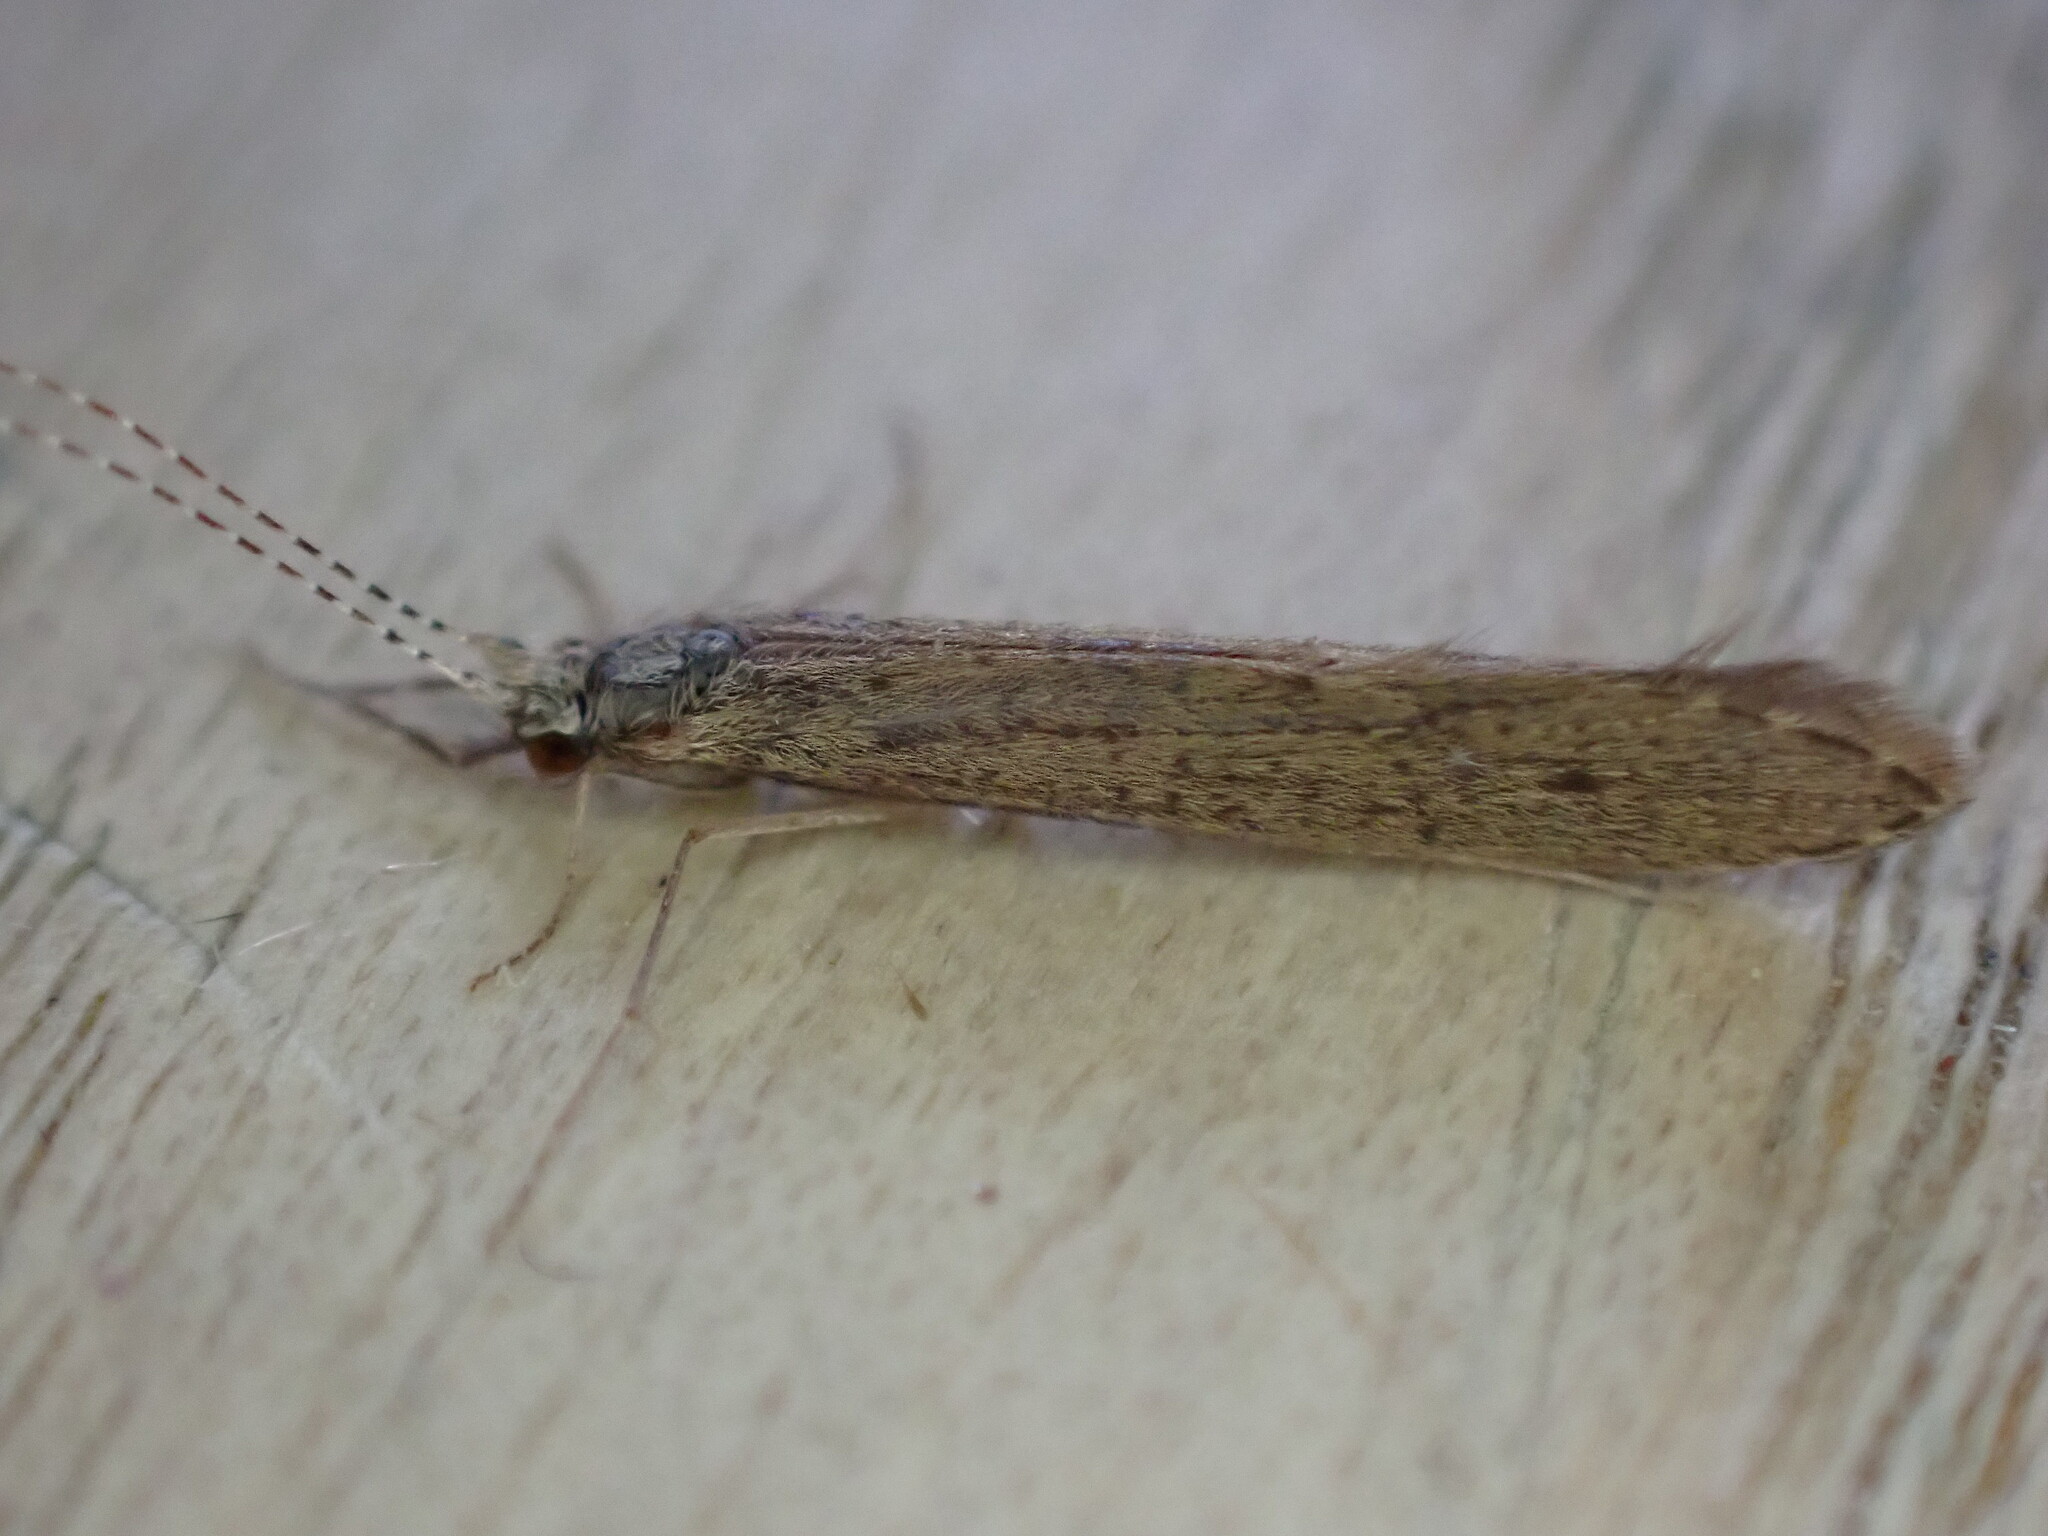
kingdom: Animalia
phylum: Arthropoda
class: Insecta
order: Trichoptera
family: Leptoceridae
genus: Leptocerus
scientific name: Leptocerus tineiformis
